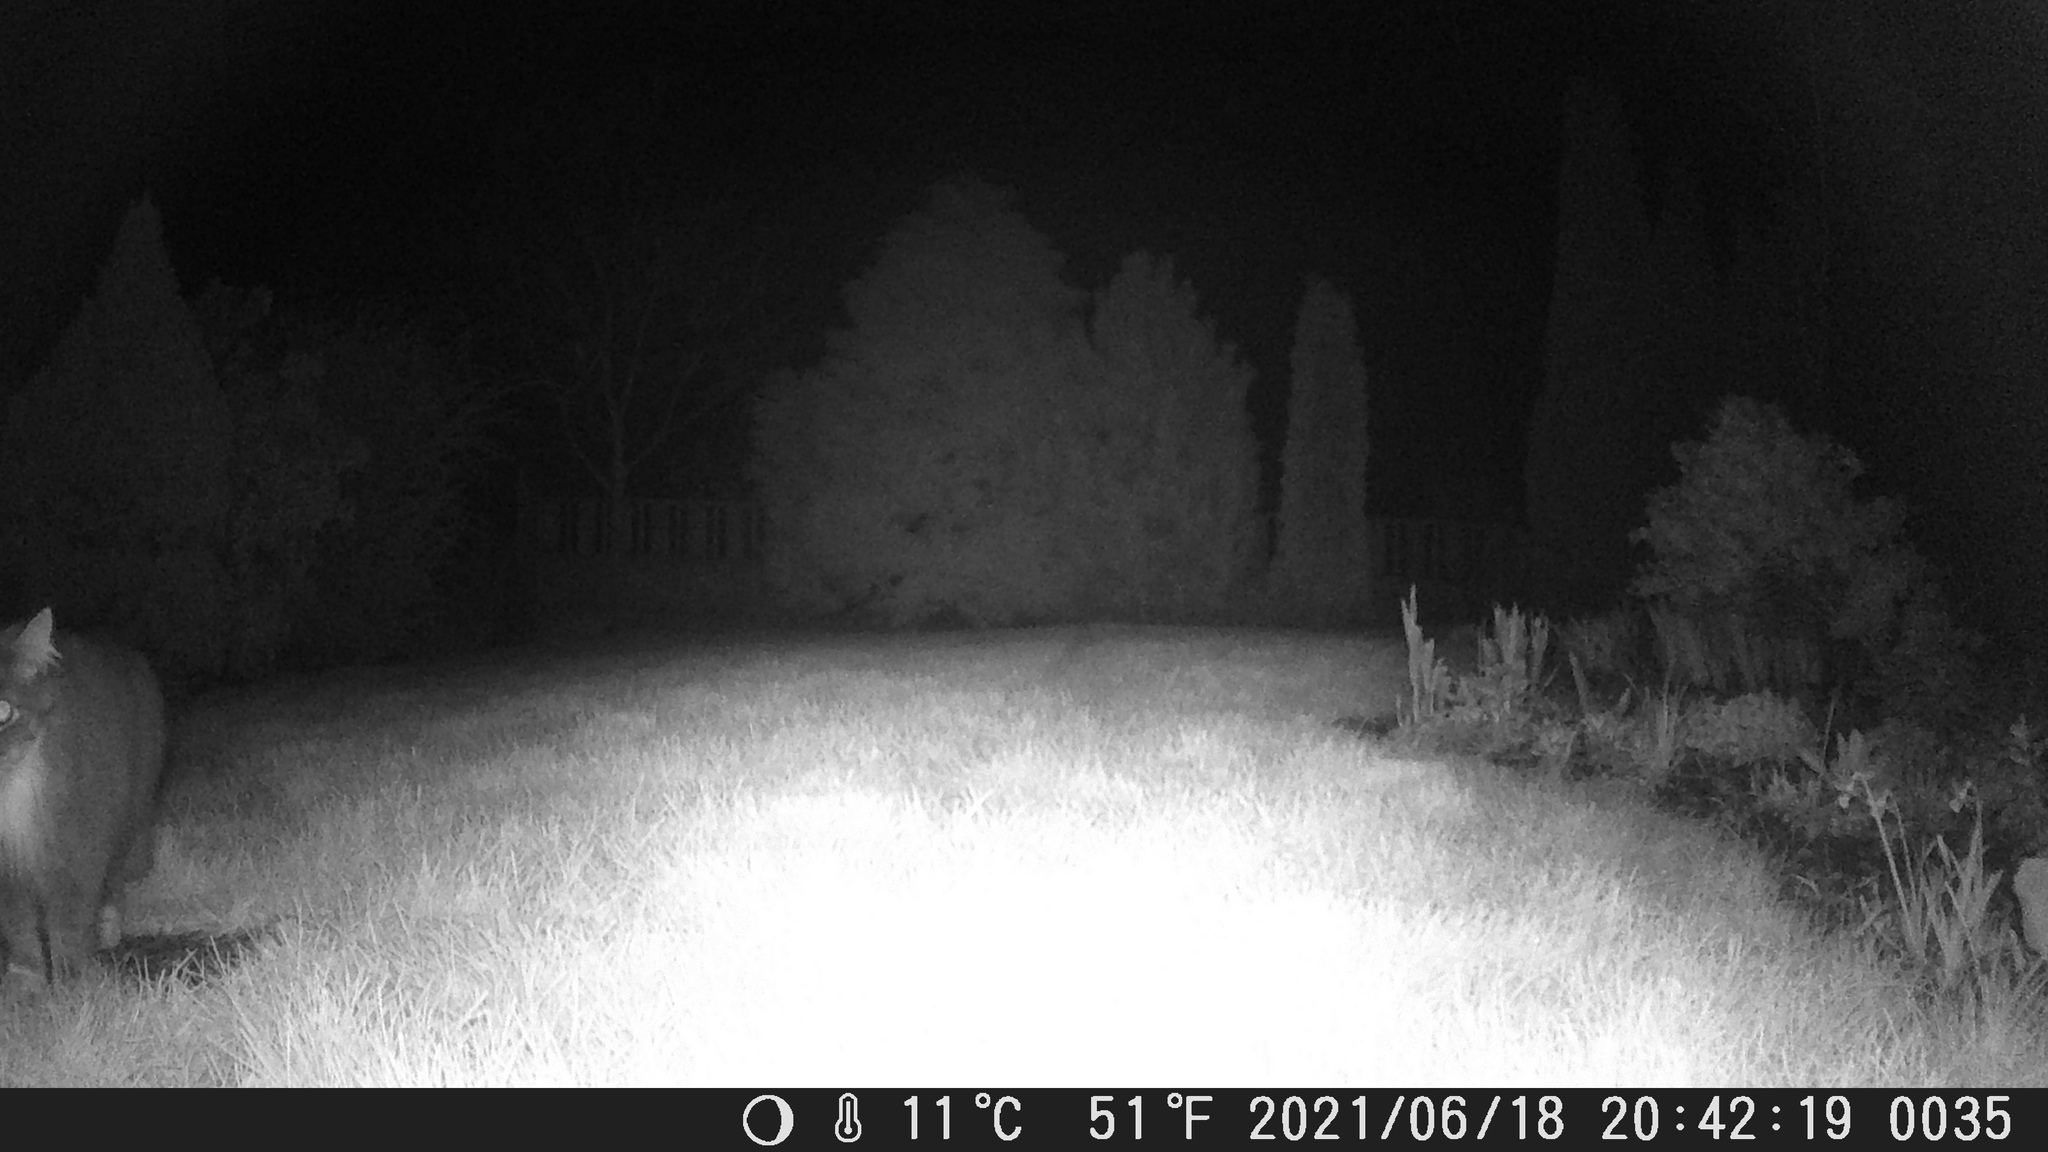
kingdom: Animalia
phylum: Chordata
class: Mammalia
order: Carnivora
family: Felidae
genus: Felis
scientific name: Felis catus
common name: Domestic cat
